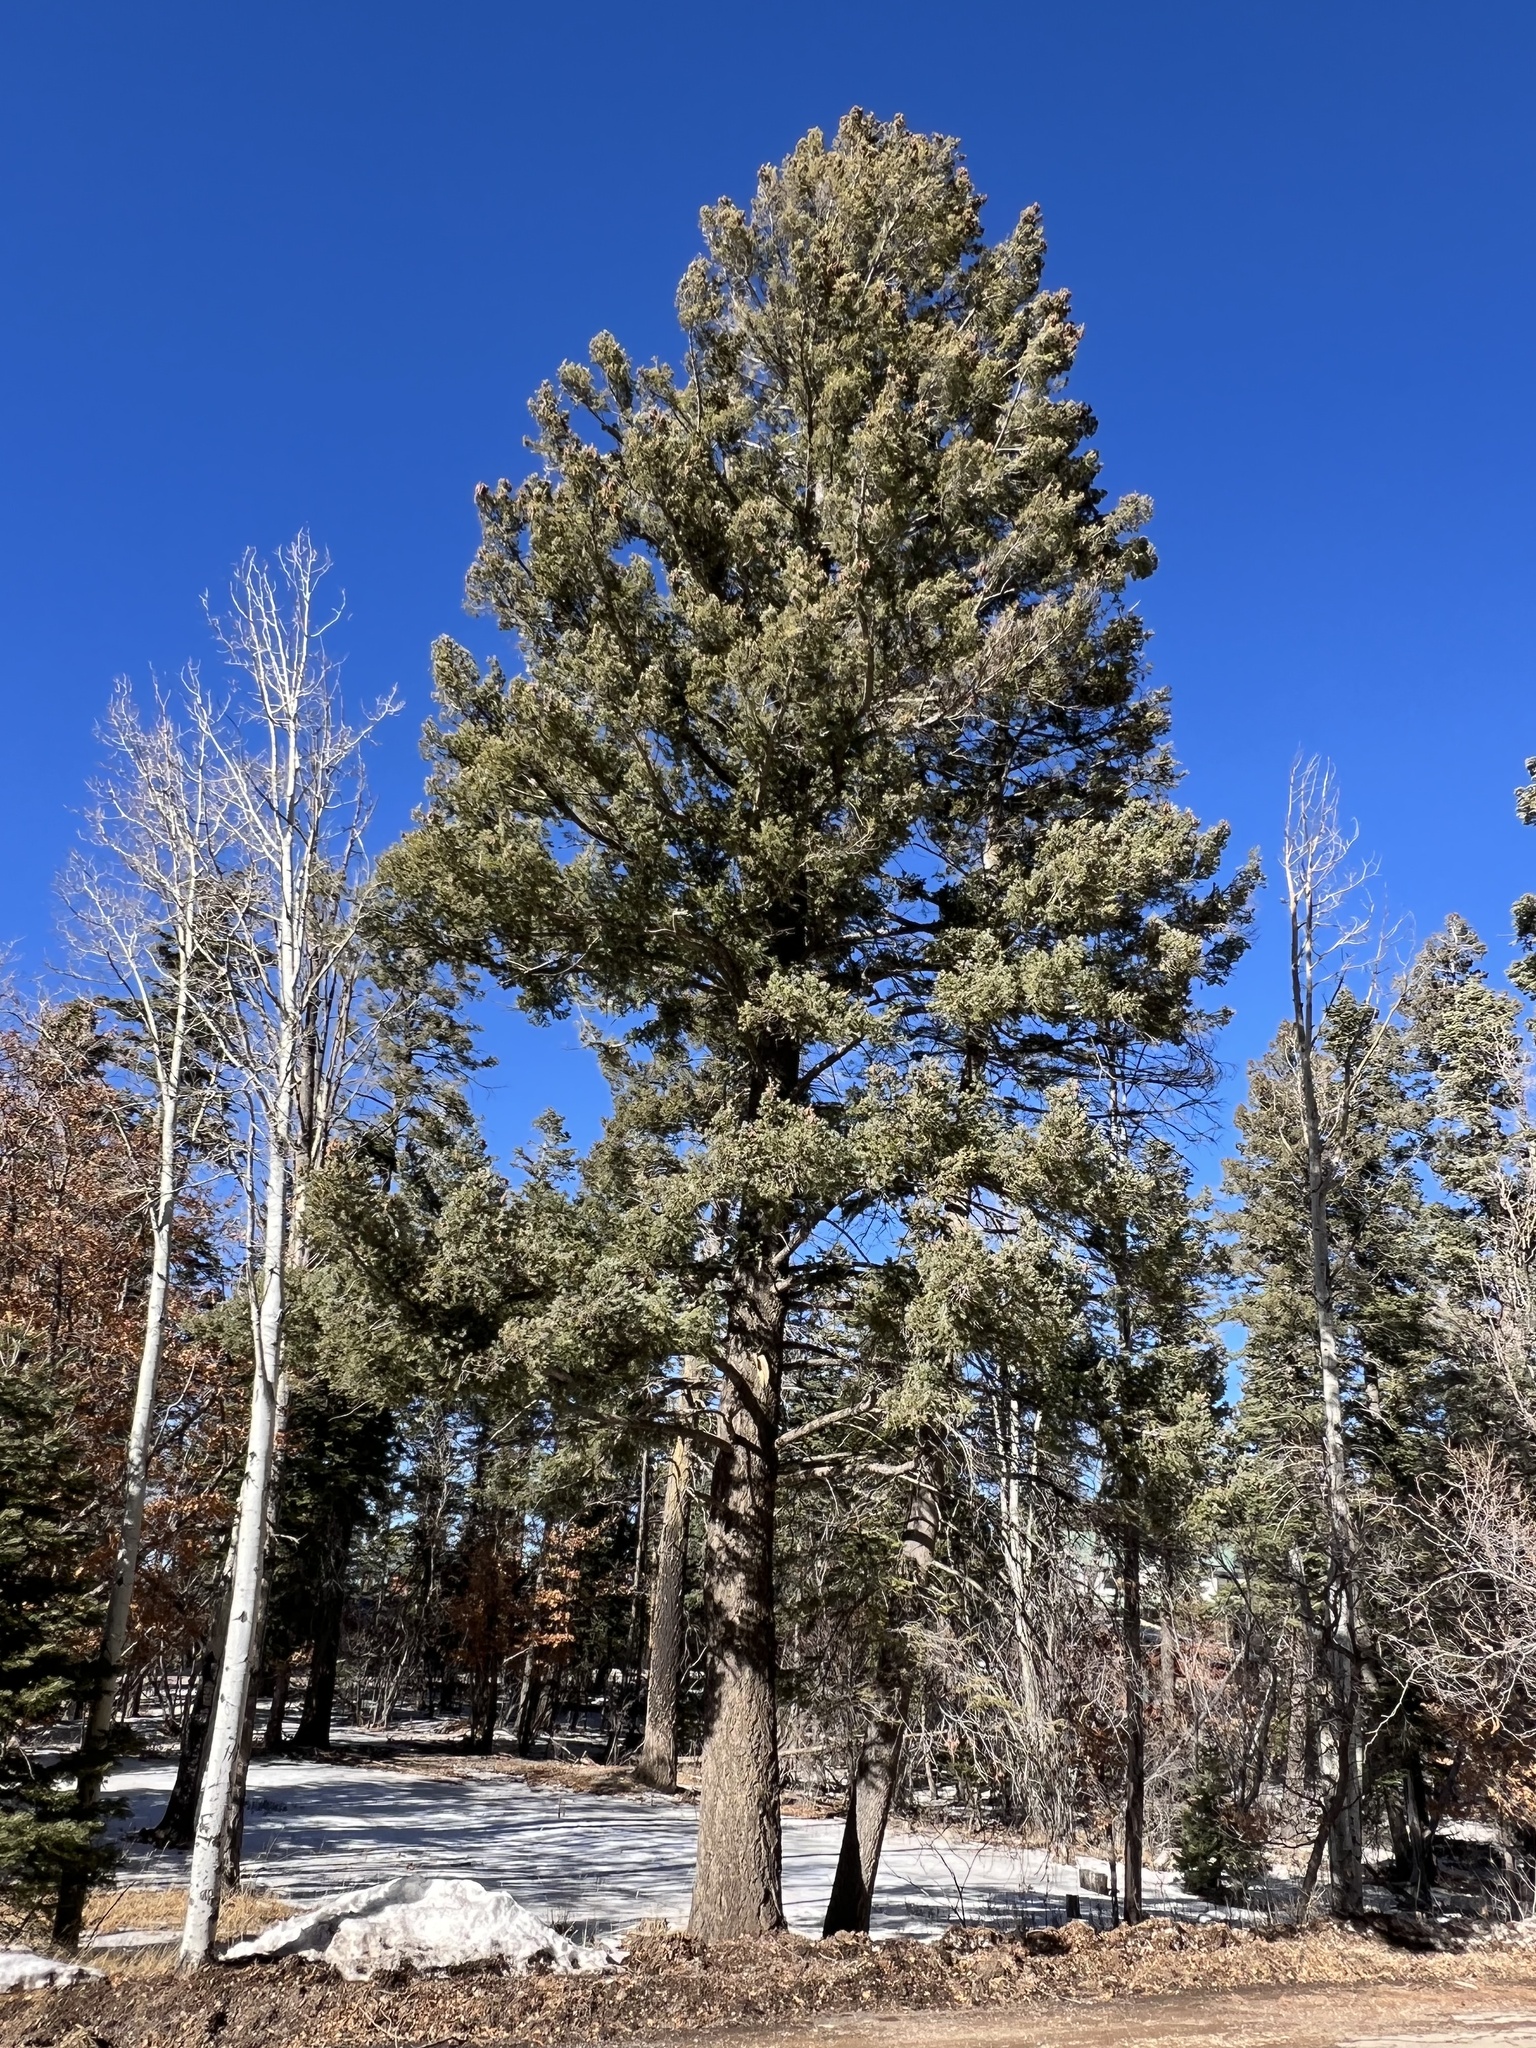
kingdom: Plantae
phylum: Tracheophyta
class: Pinopsida
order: Pinales
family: Pinaceae
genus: Pseudotsuga
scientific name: Pseudotsuga menziesii
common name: Douglas fir
